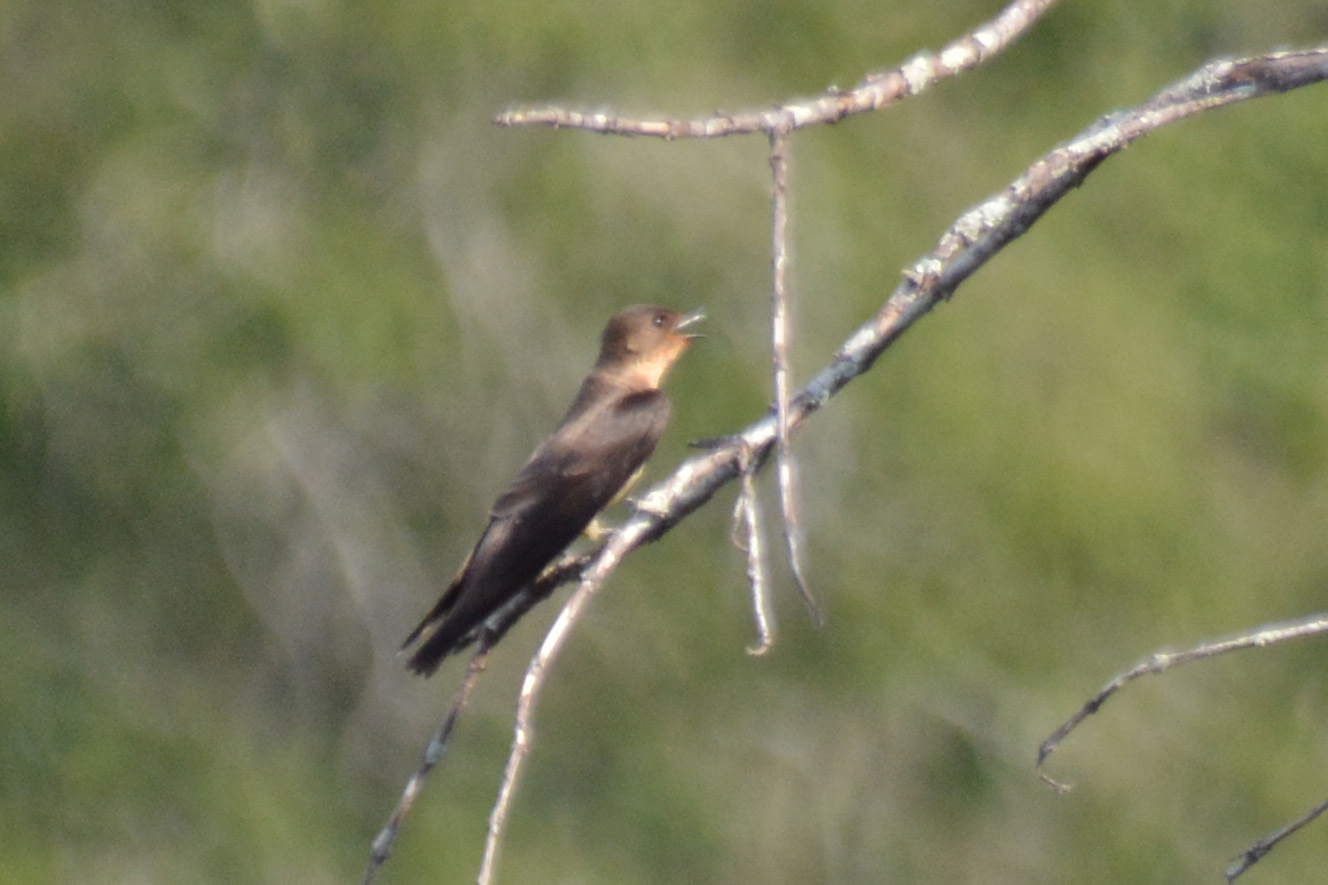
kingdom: Animalia
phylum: Chordata
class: Aves
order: Passeriformes
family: Hirundinidae
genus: Stelgidopteryx
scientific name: Stelgidopteryx ruficollis
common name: Southern rough-winged swallow
